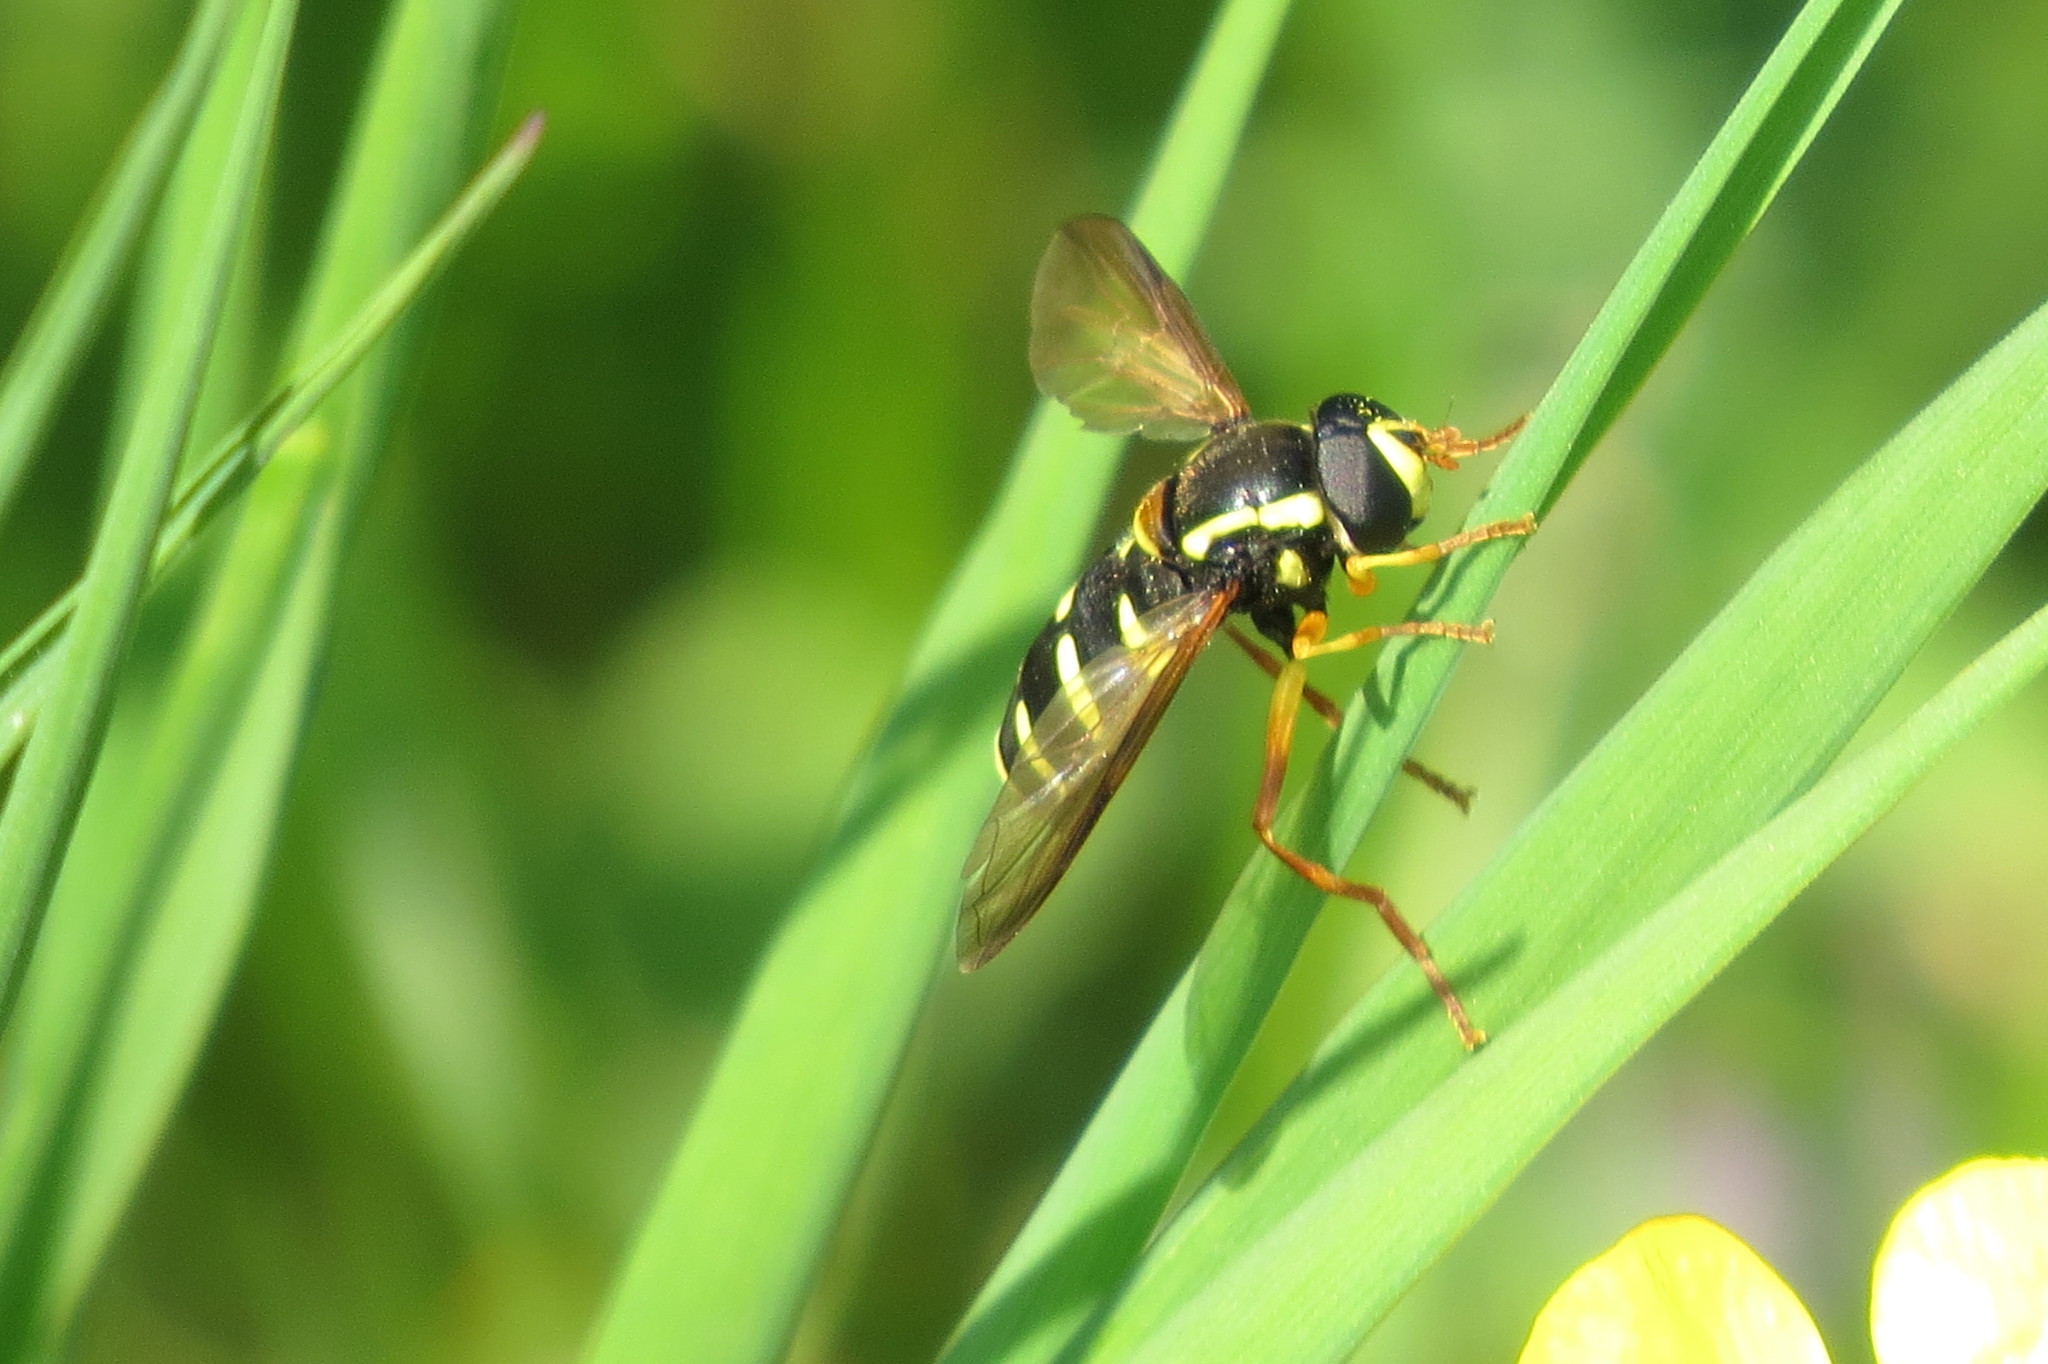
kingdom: Animalia
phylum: Arthropoda
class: Insecta
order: Diptera
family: Syrphidae
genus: Philhelius
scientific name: Philhelius citrofasciata
